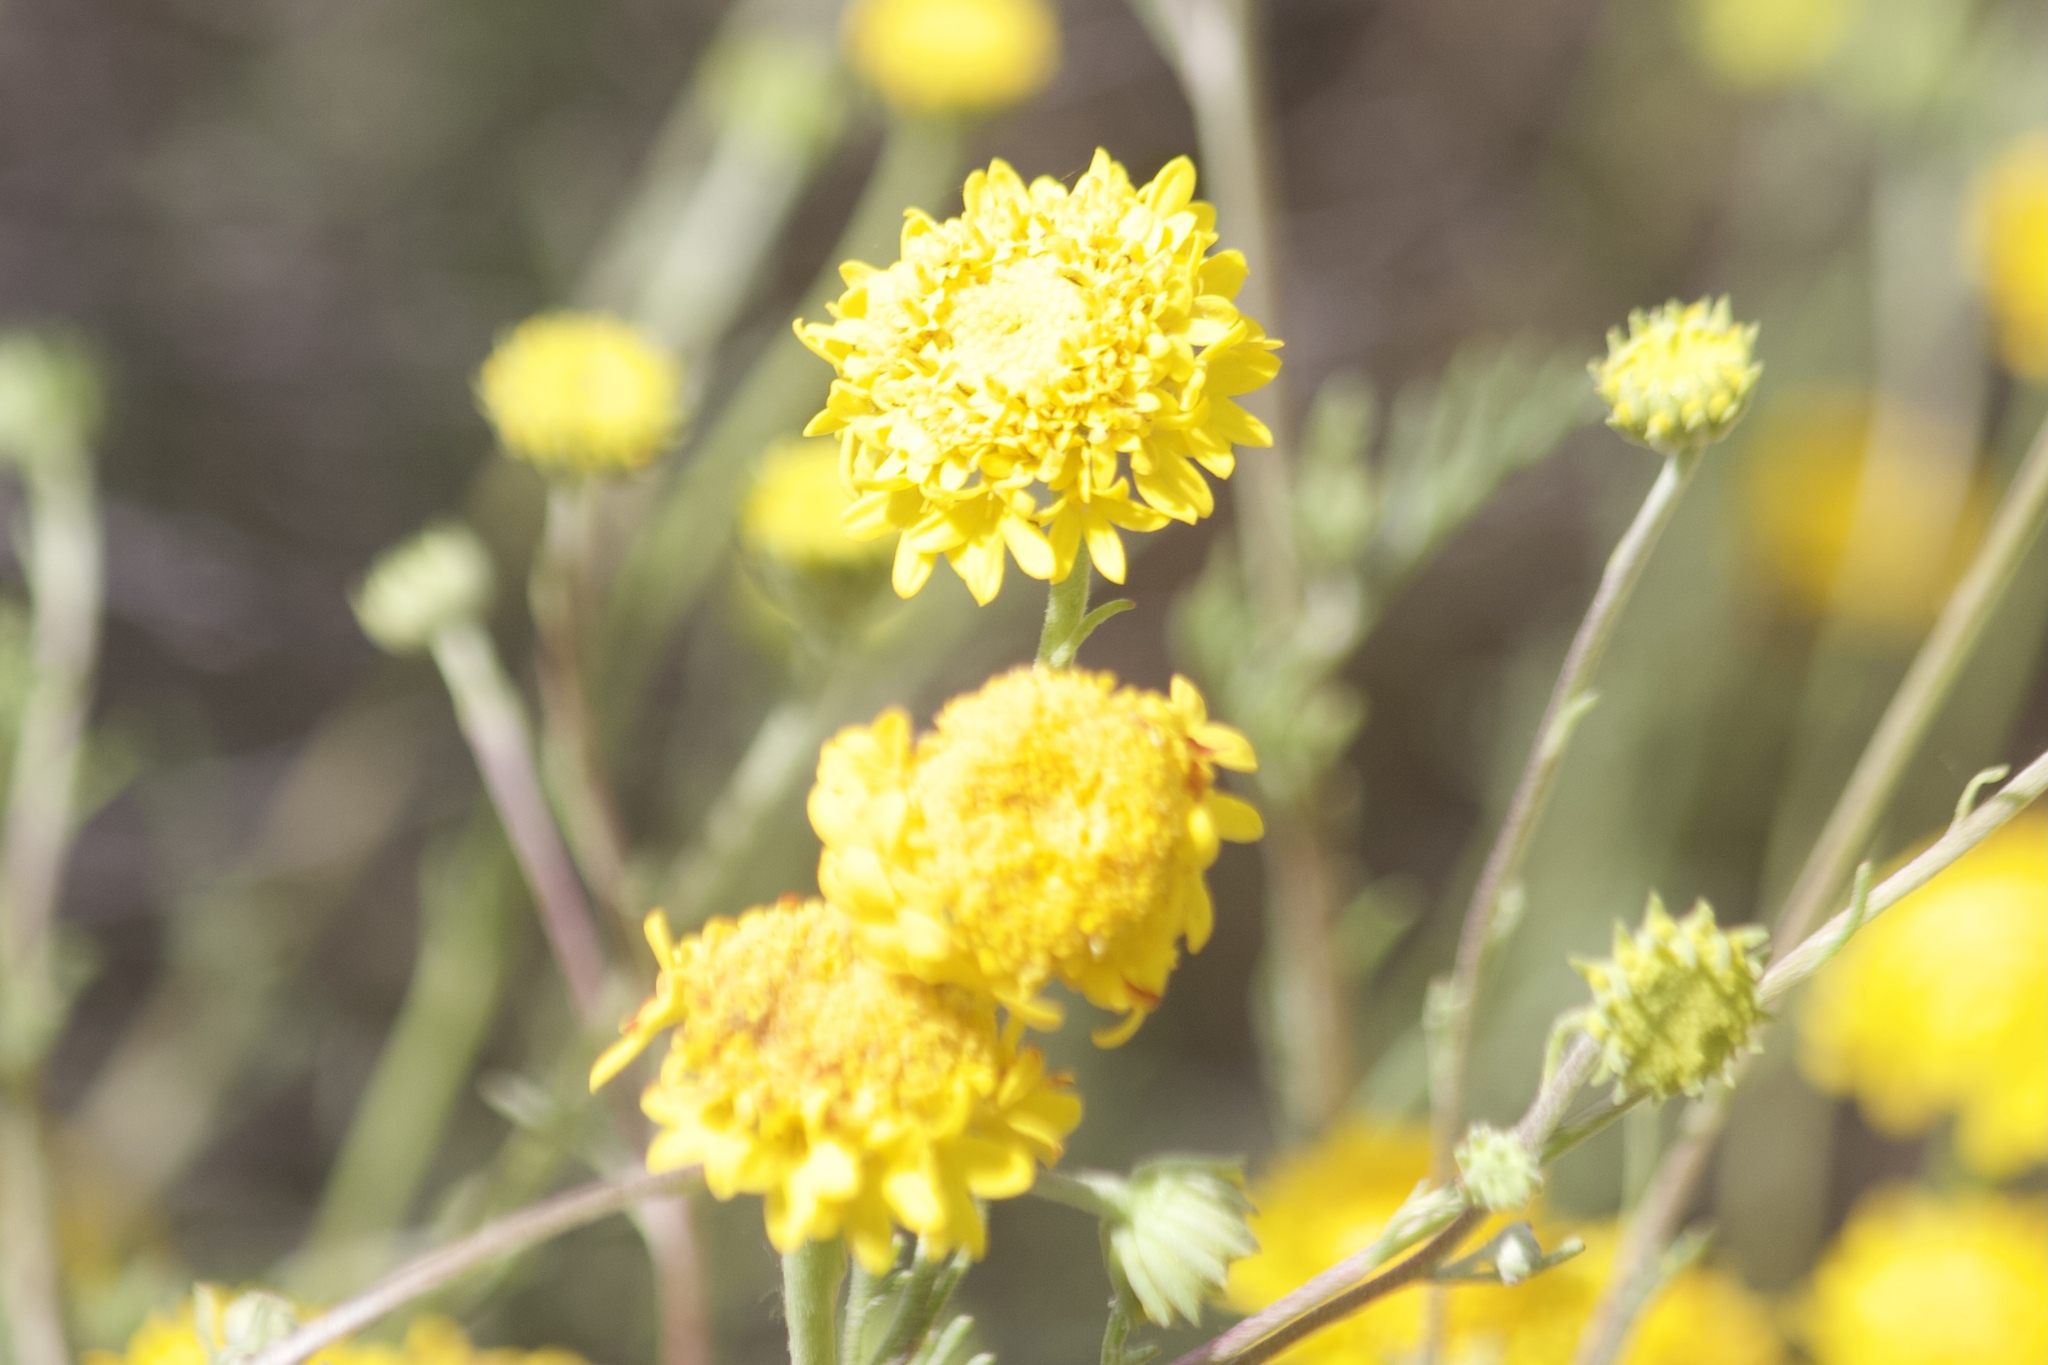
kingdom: Plantae
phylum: Tracheophyta
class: Magnoliopsida
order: Asterales
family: Asteraceae
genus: Chaenactis
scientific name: Chaenactis glabriuscula
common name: Yellow pincushion
